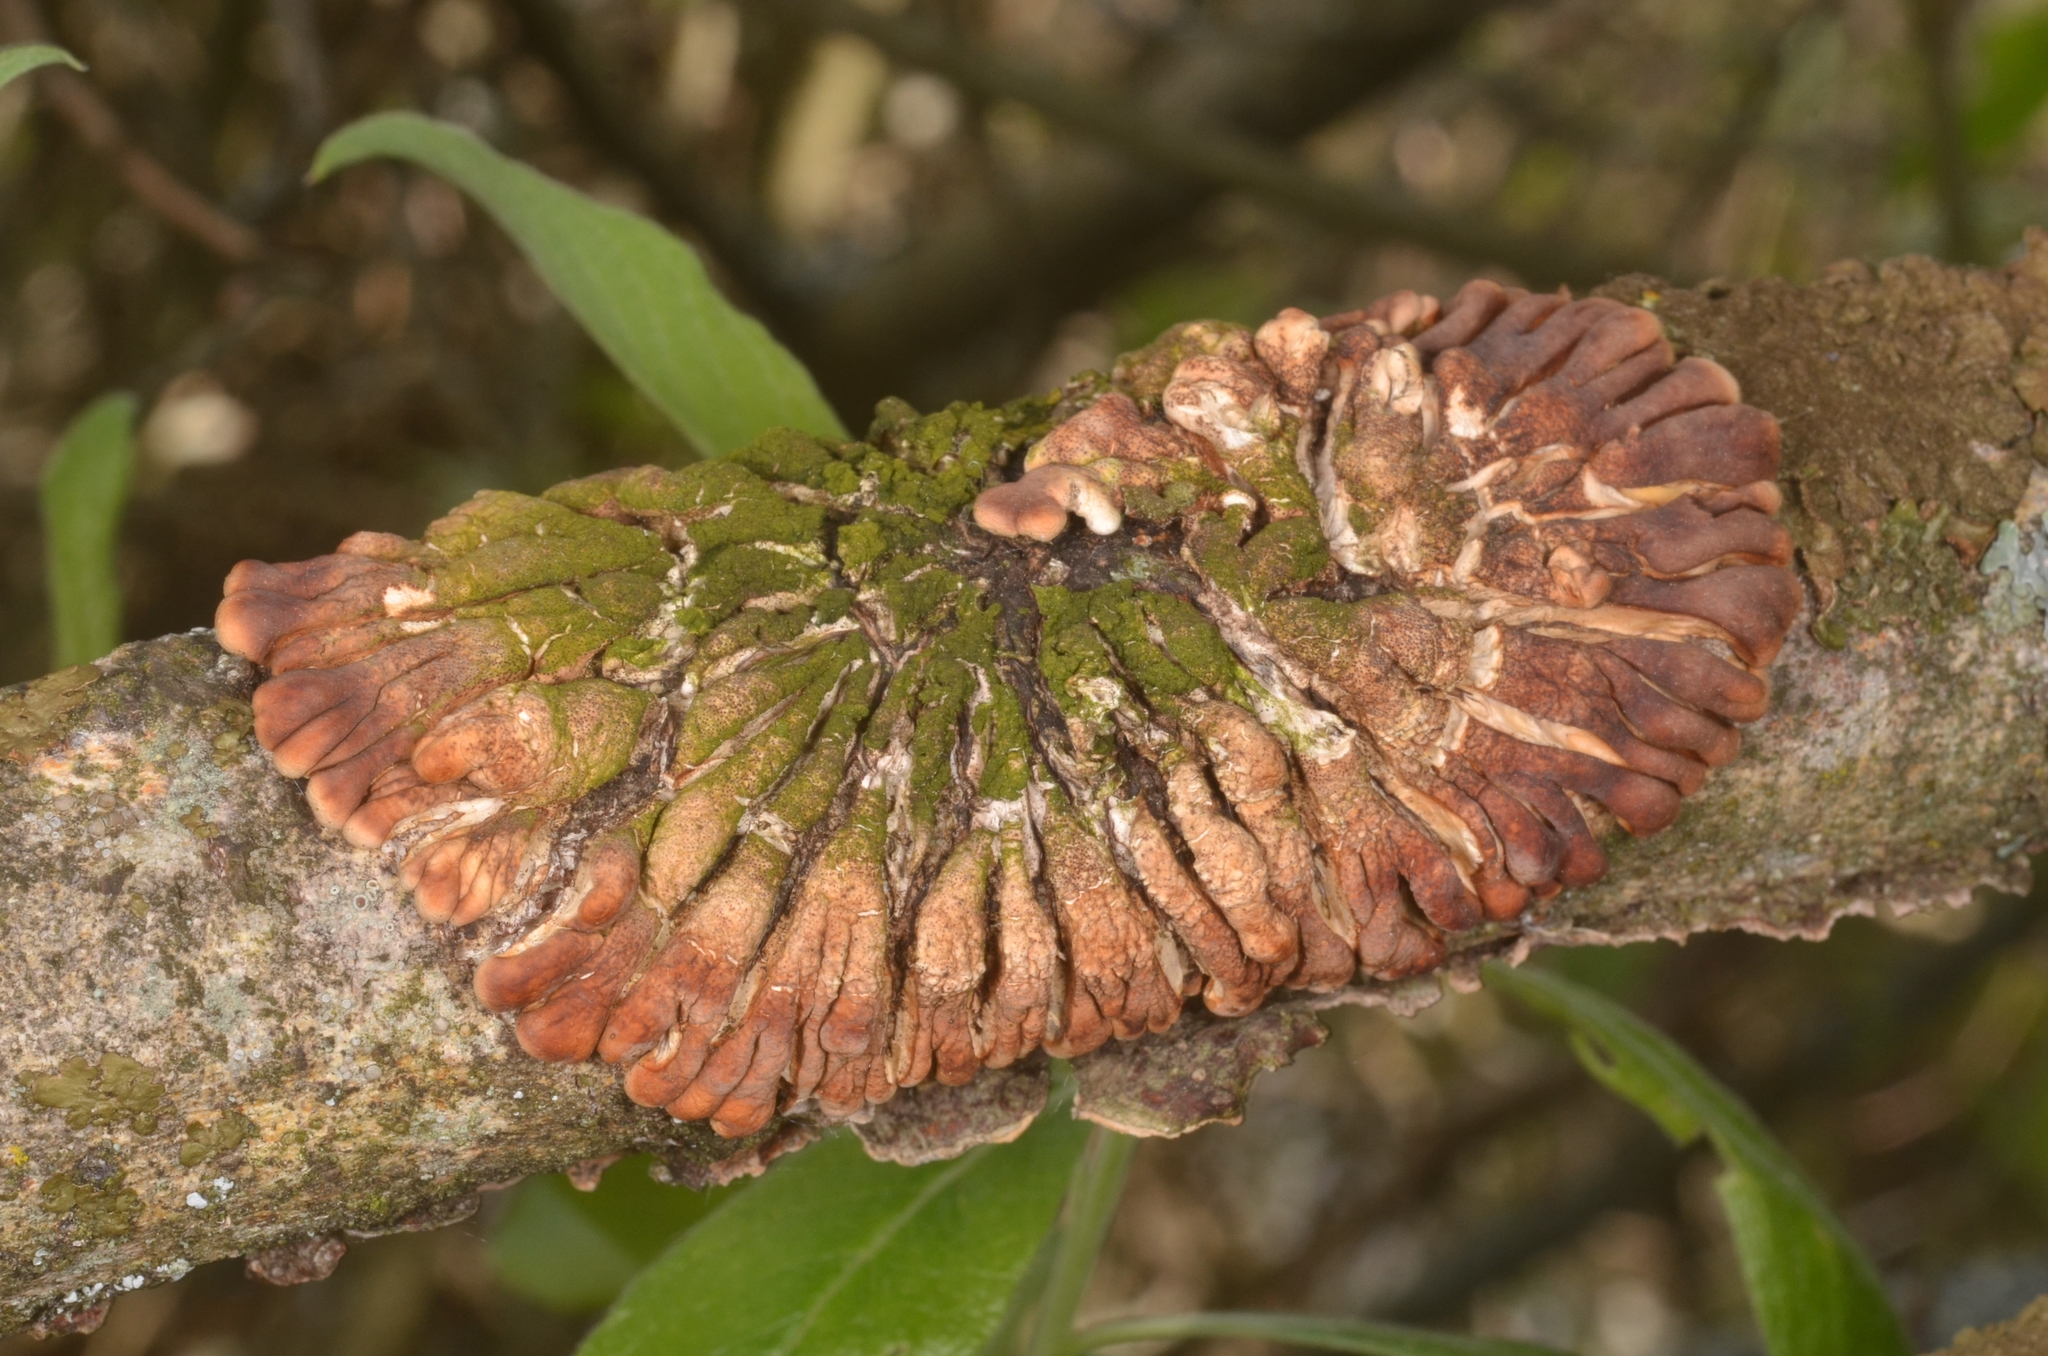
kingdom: Fungi
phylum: Ascomycota
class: Sordariomycetes
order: Hypocreales
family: Hypocreaceae
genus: Hypocreopsis
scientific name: Hypocreopsis lichenoides
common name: Willow gloves
